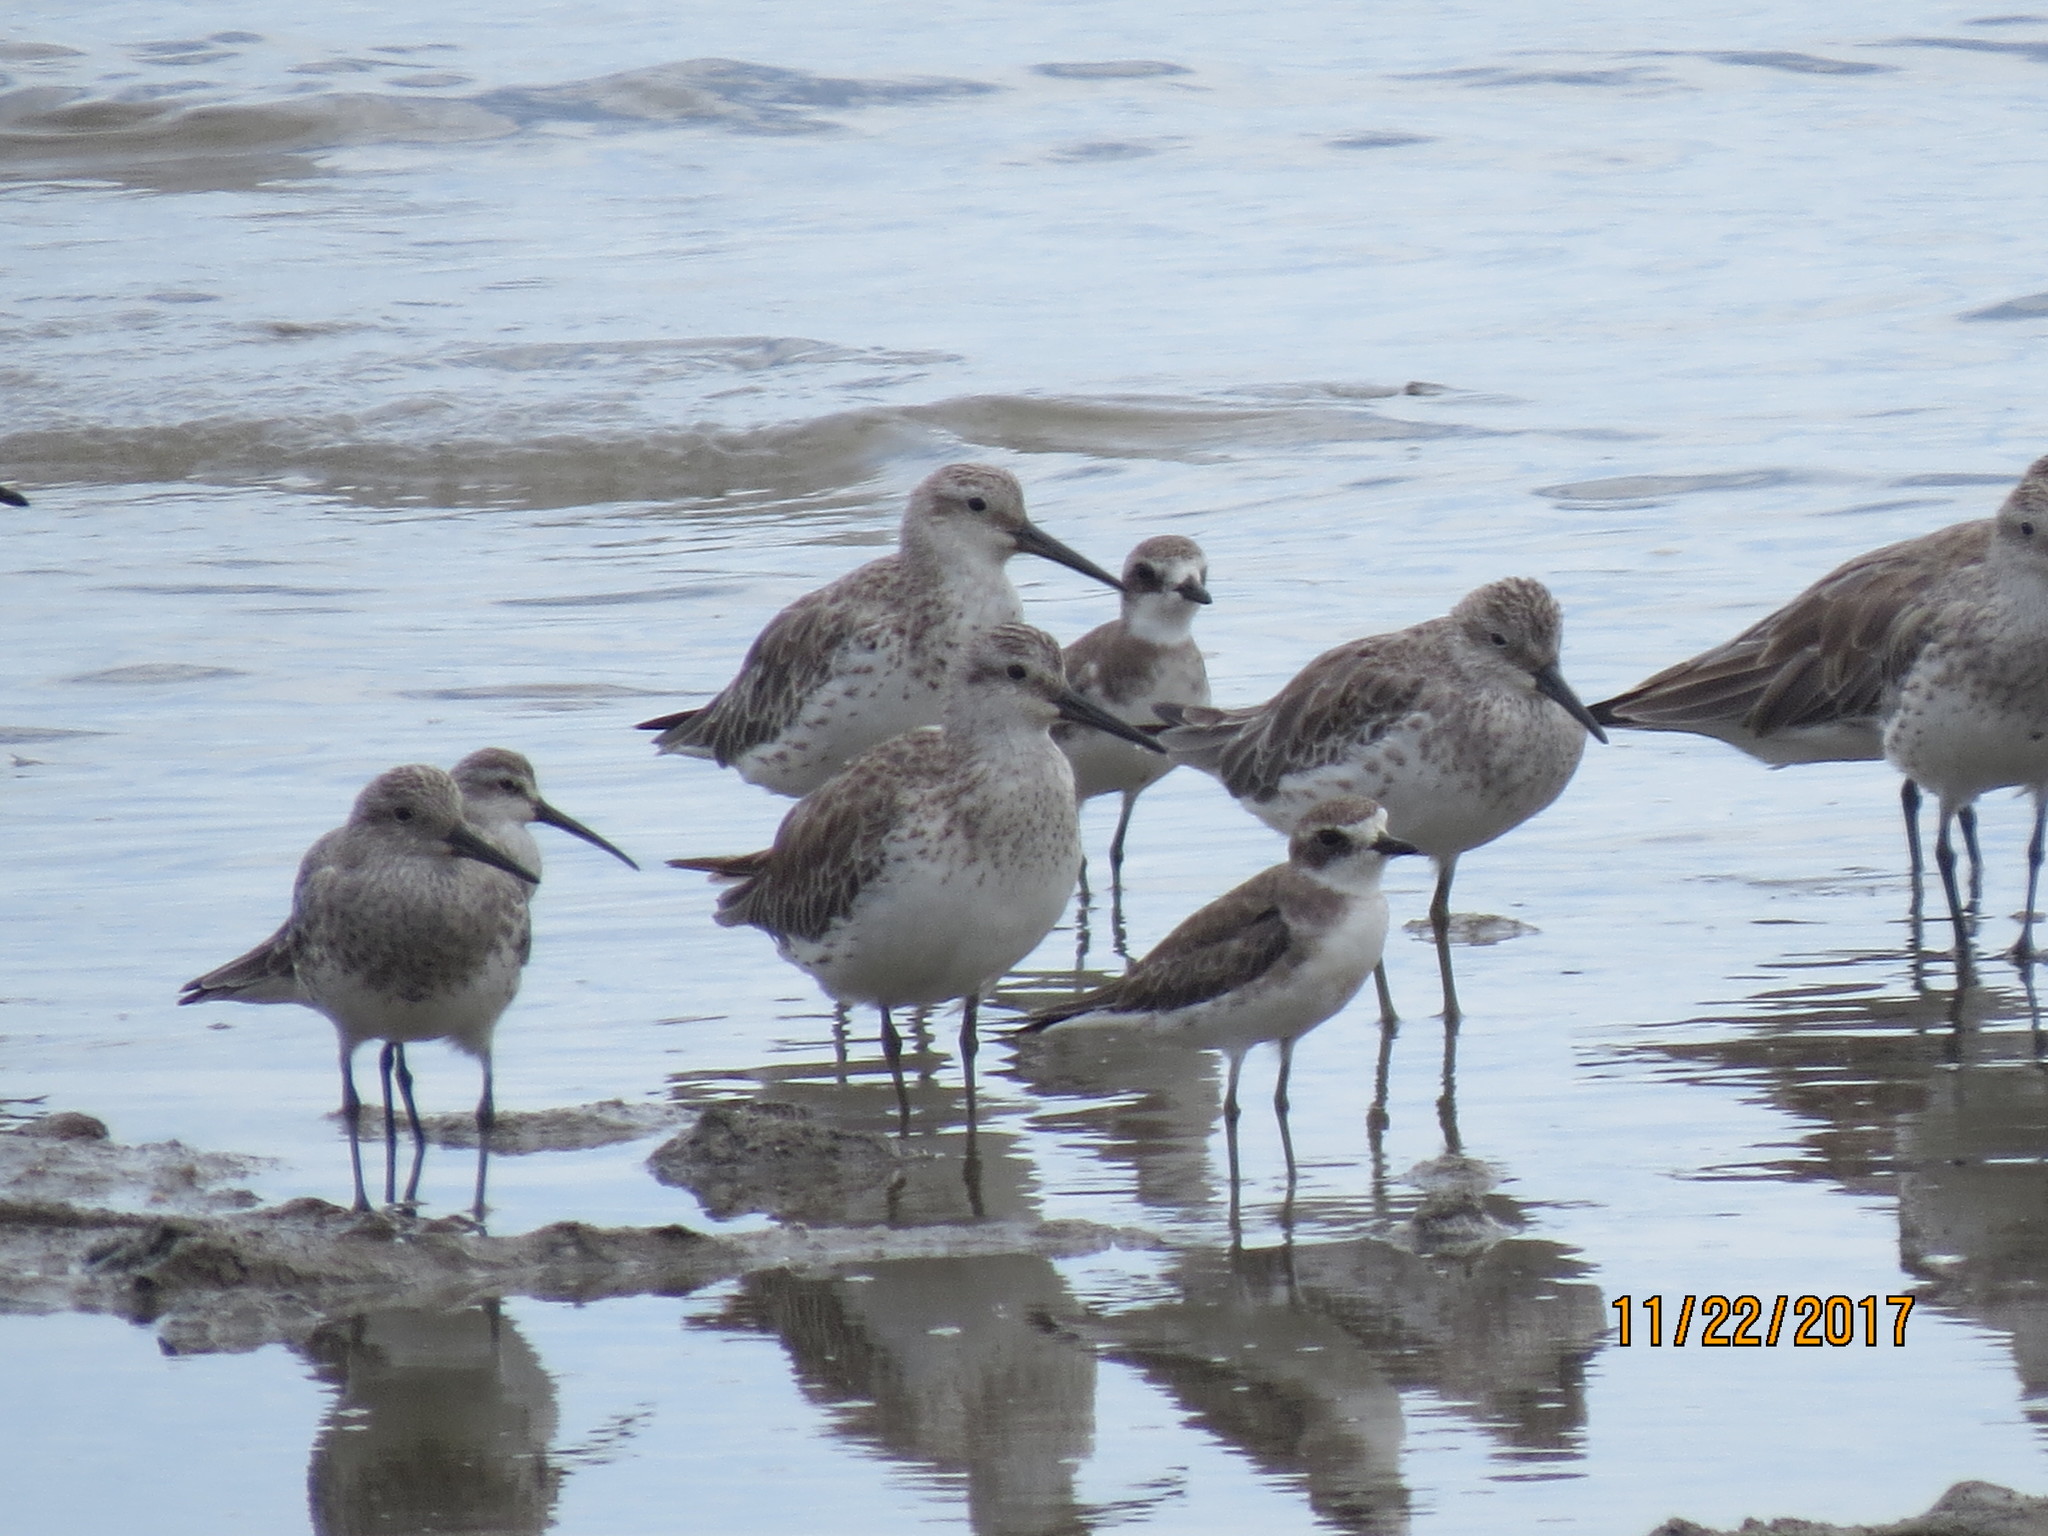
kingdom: Animalia
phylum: Chordata
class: Aves
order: Charadriiformes
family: Scolopacidae
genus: Calidris
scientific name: Calidris tenuirostris
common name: Great knot
